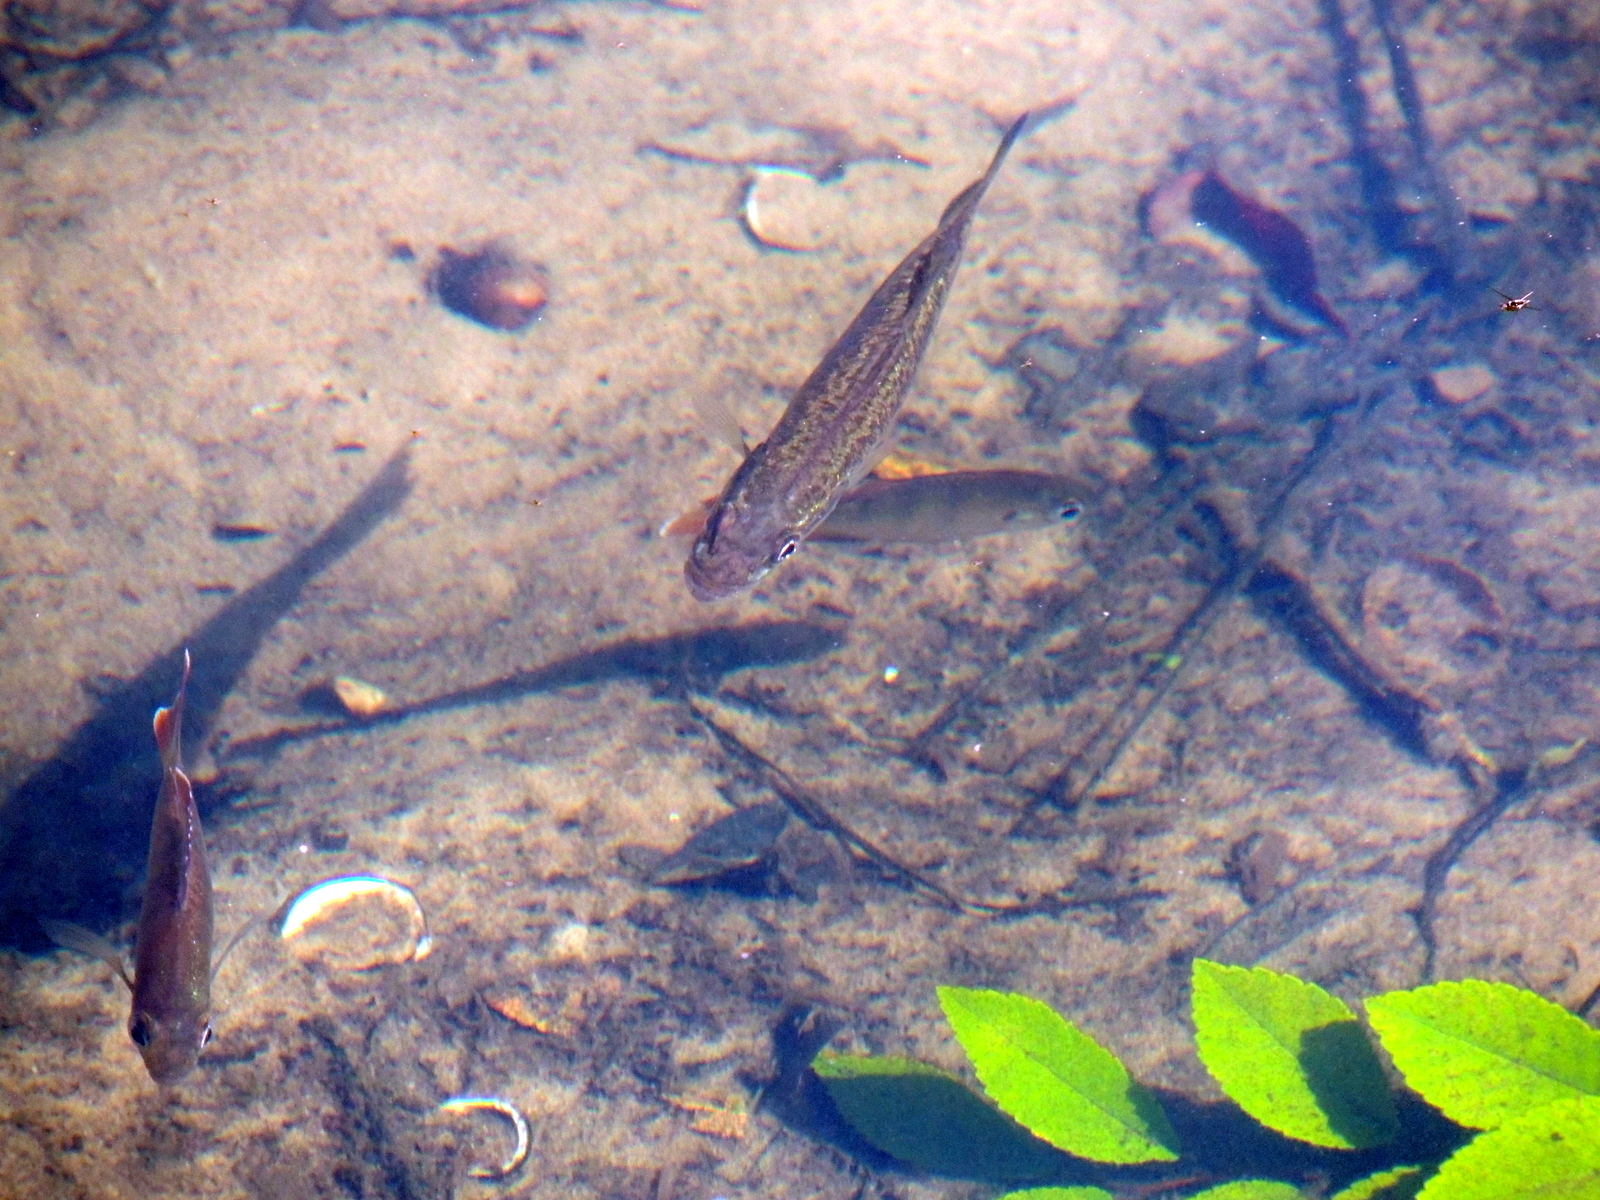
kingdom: Animalia
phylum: Chordata
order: Perciformes
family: Centrarchidae
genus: Lepomis
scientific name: Lepomis macrochirus
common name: Bluegill
